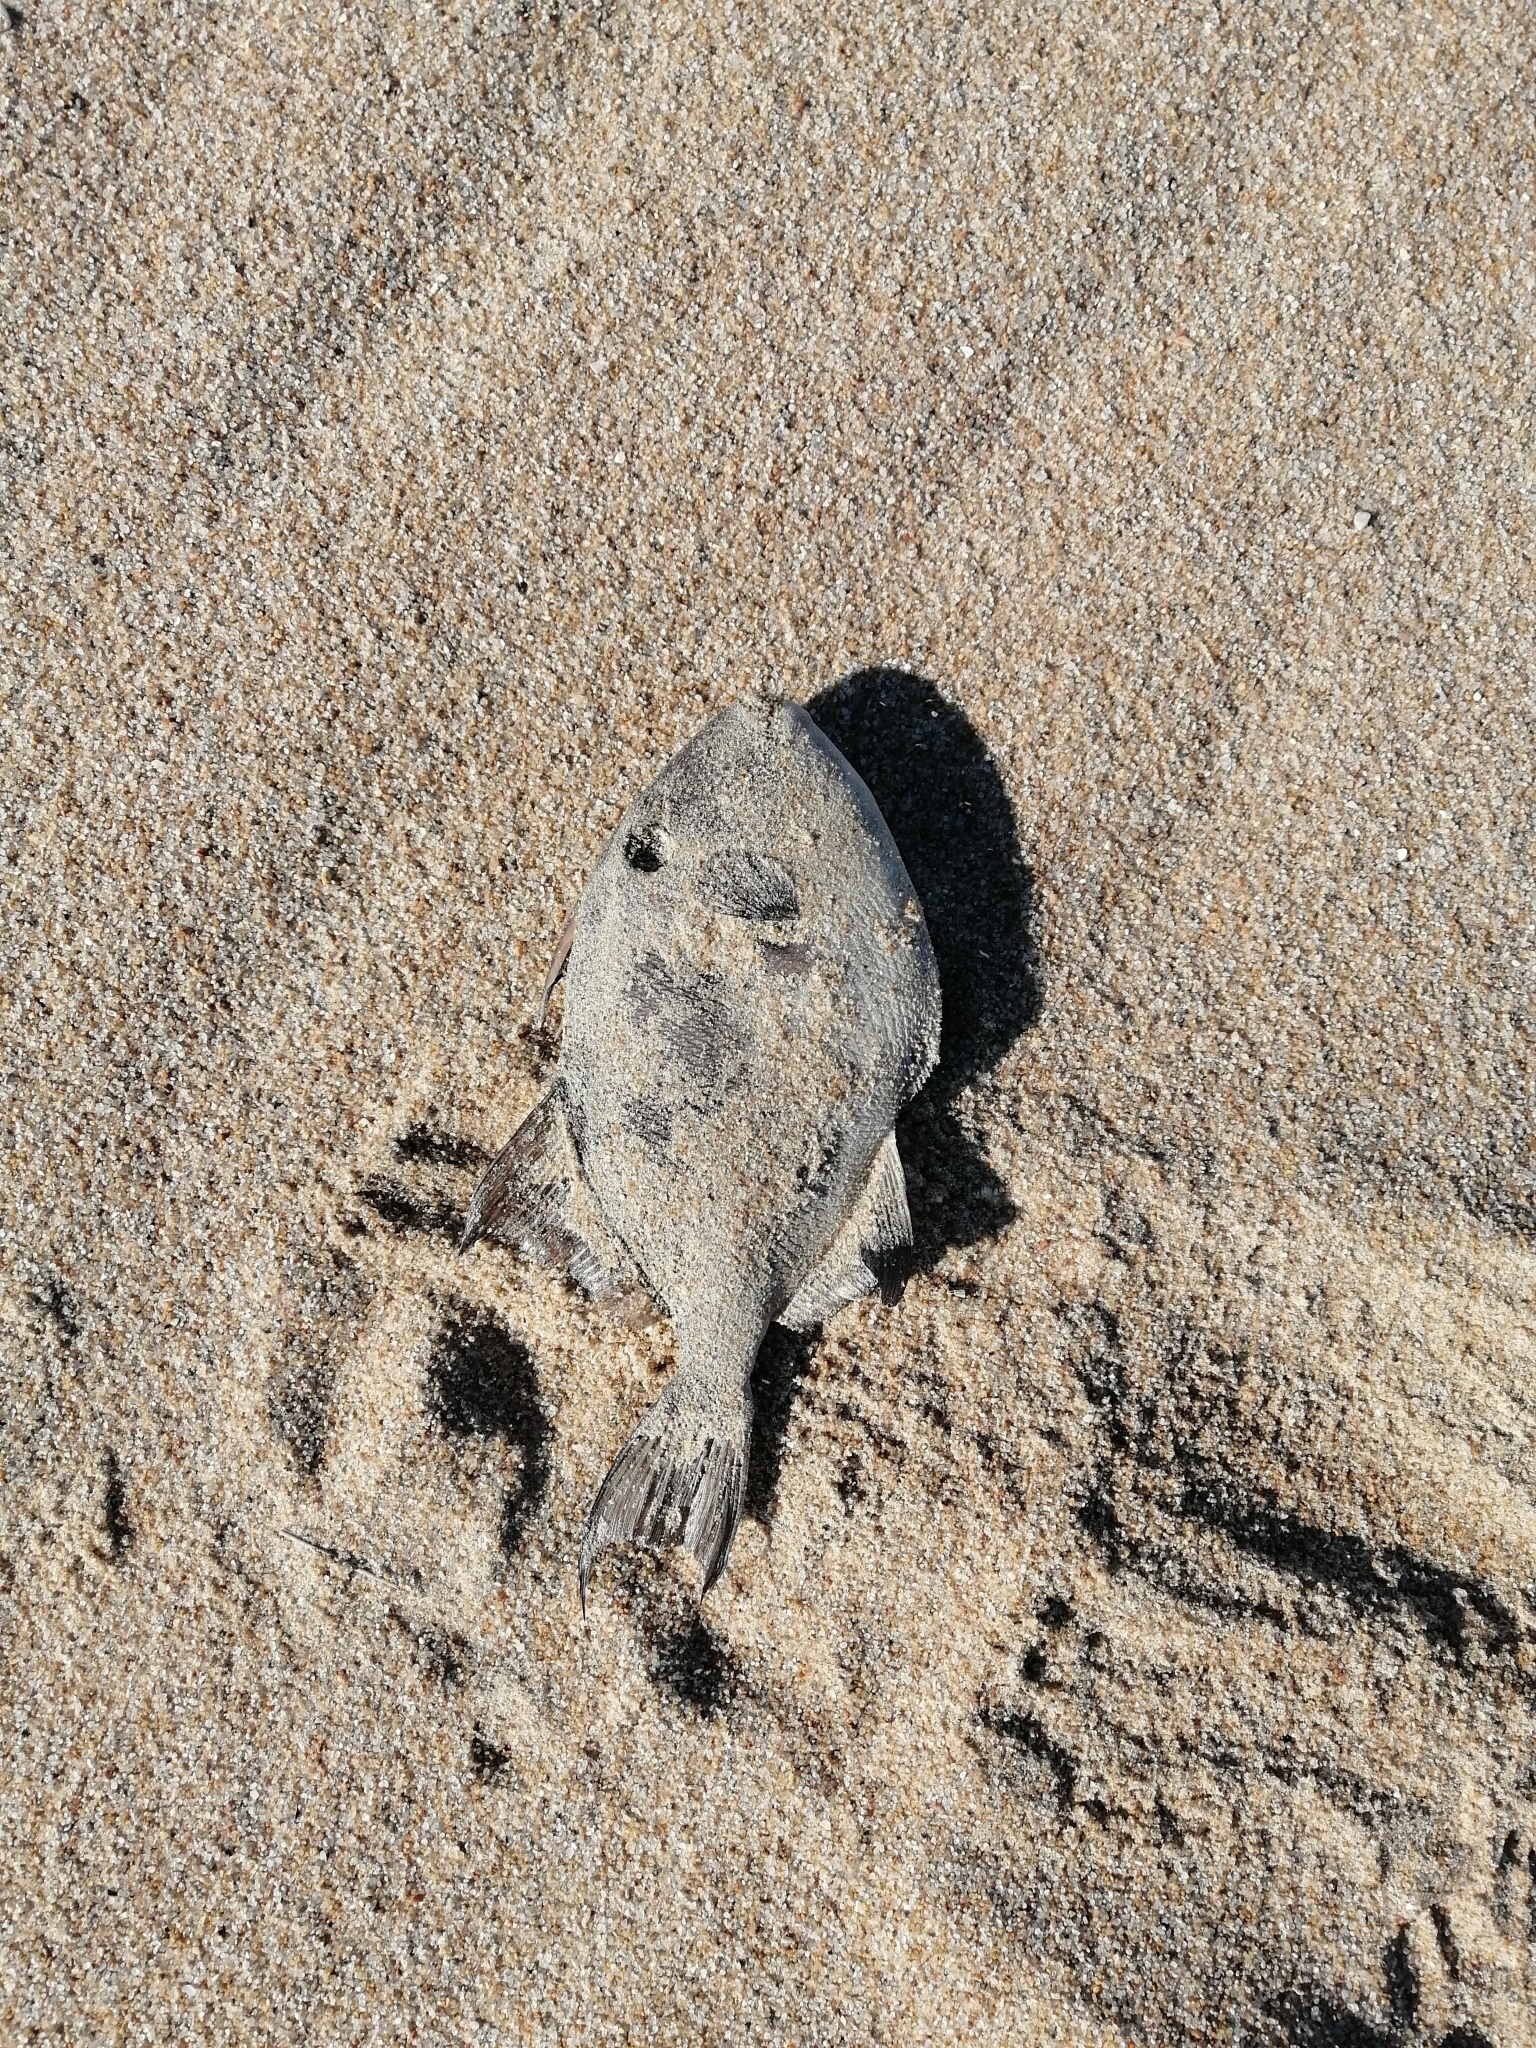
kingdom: Animalia
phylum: Chordata
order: Tetraodontiformes
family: Balistidae
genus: Balistes
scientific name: Balistes capriscus
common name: Grey triggerfish
